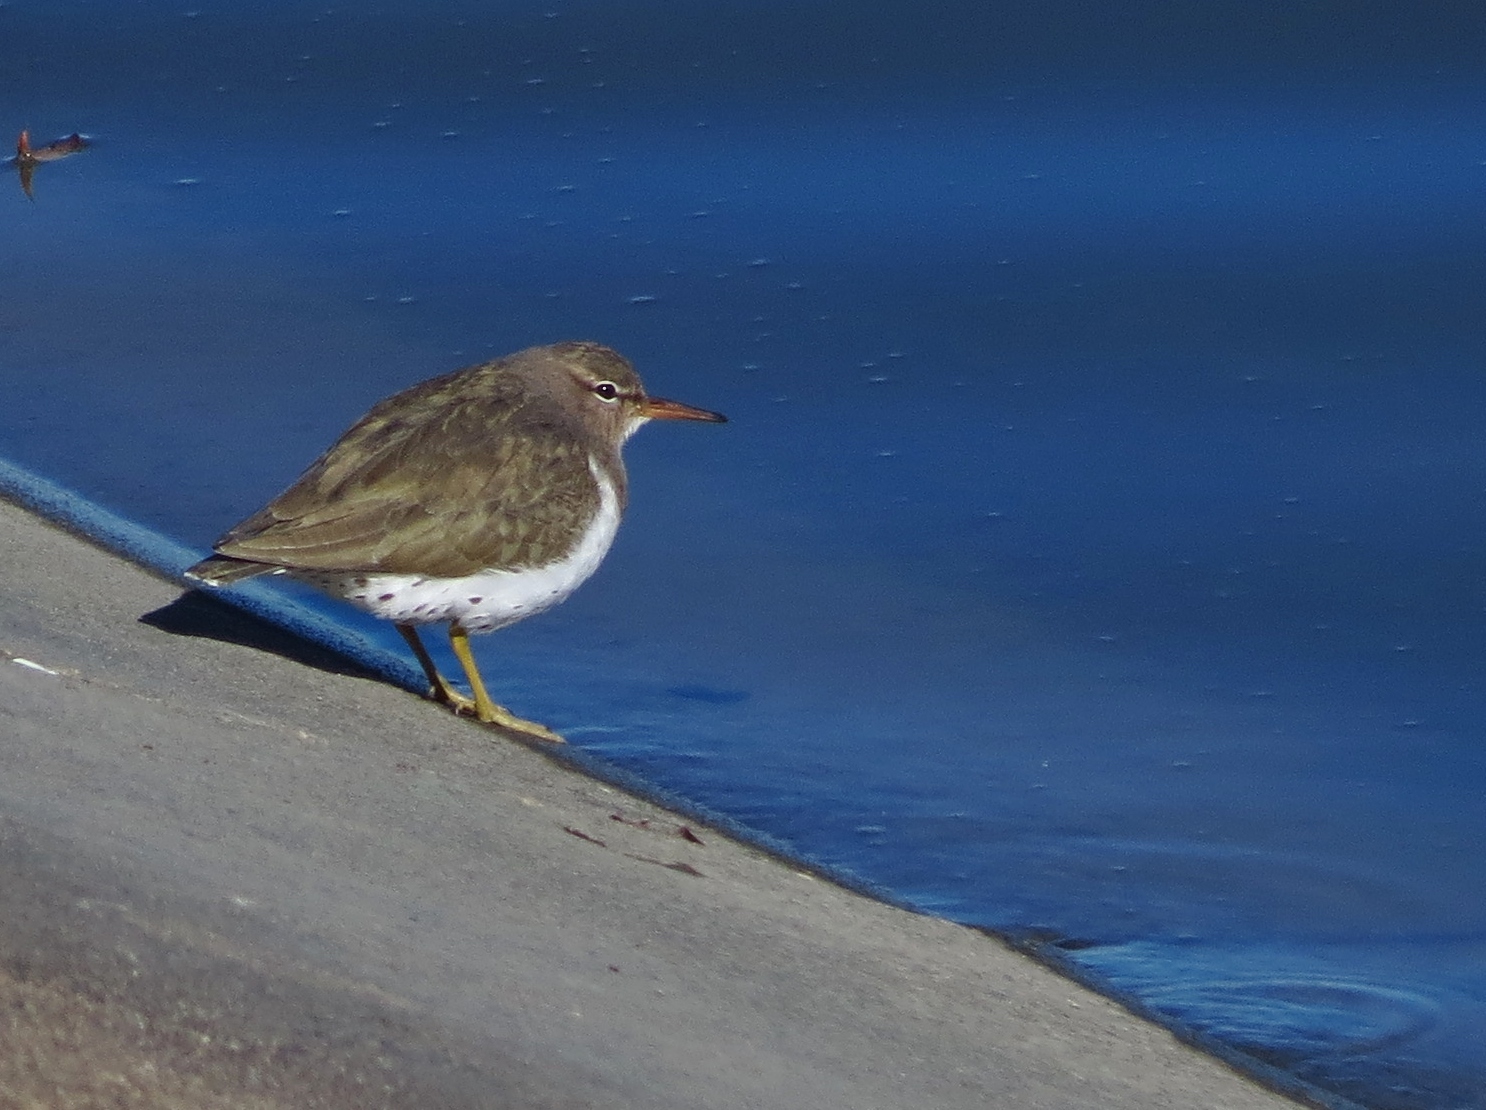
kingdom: Animalia
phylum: Chordata
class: Aves
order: Charadriiformes
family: Scolopacidae
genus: Actitis
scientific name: Actitis macularius
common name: Spotted sandpiper
